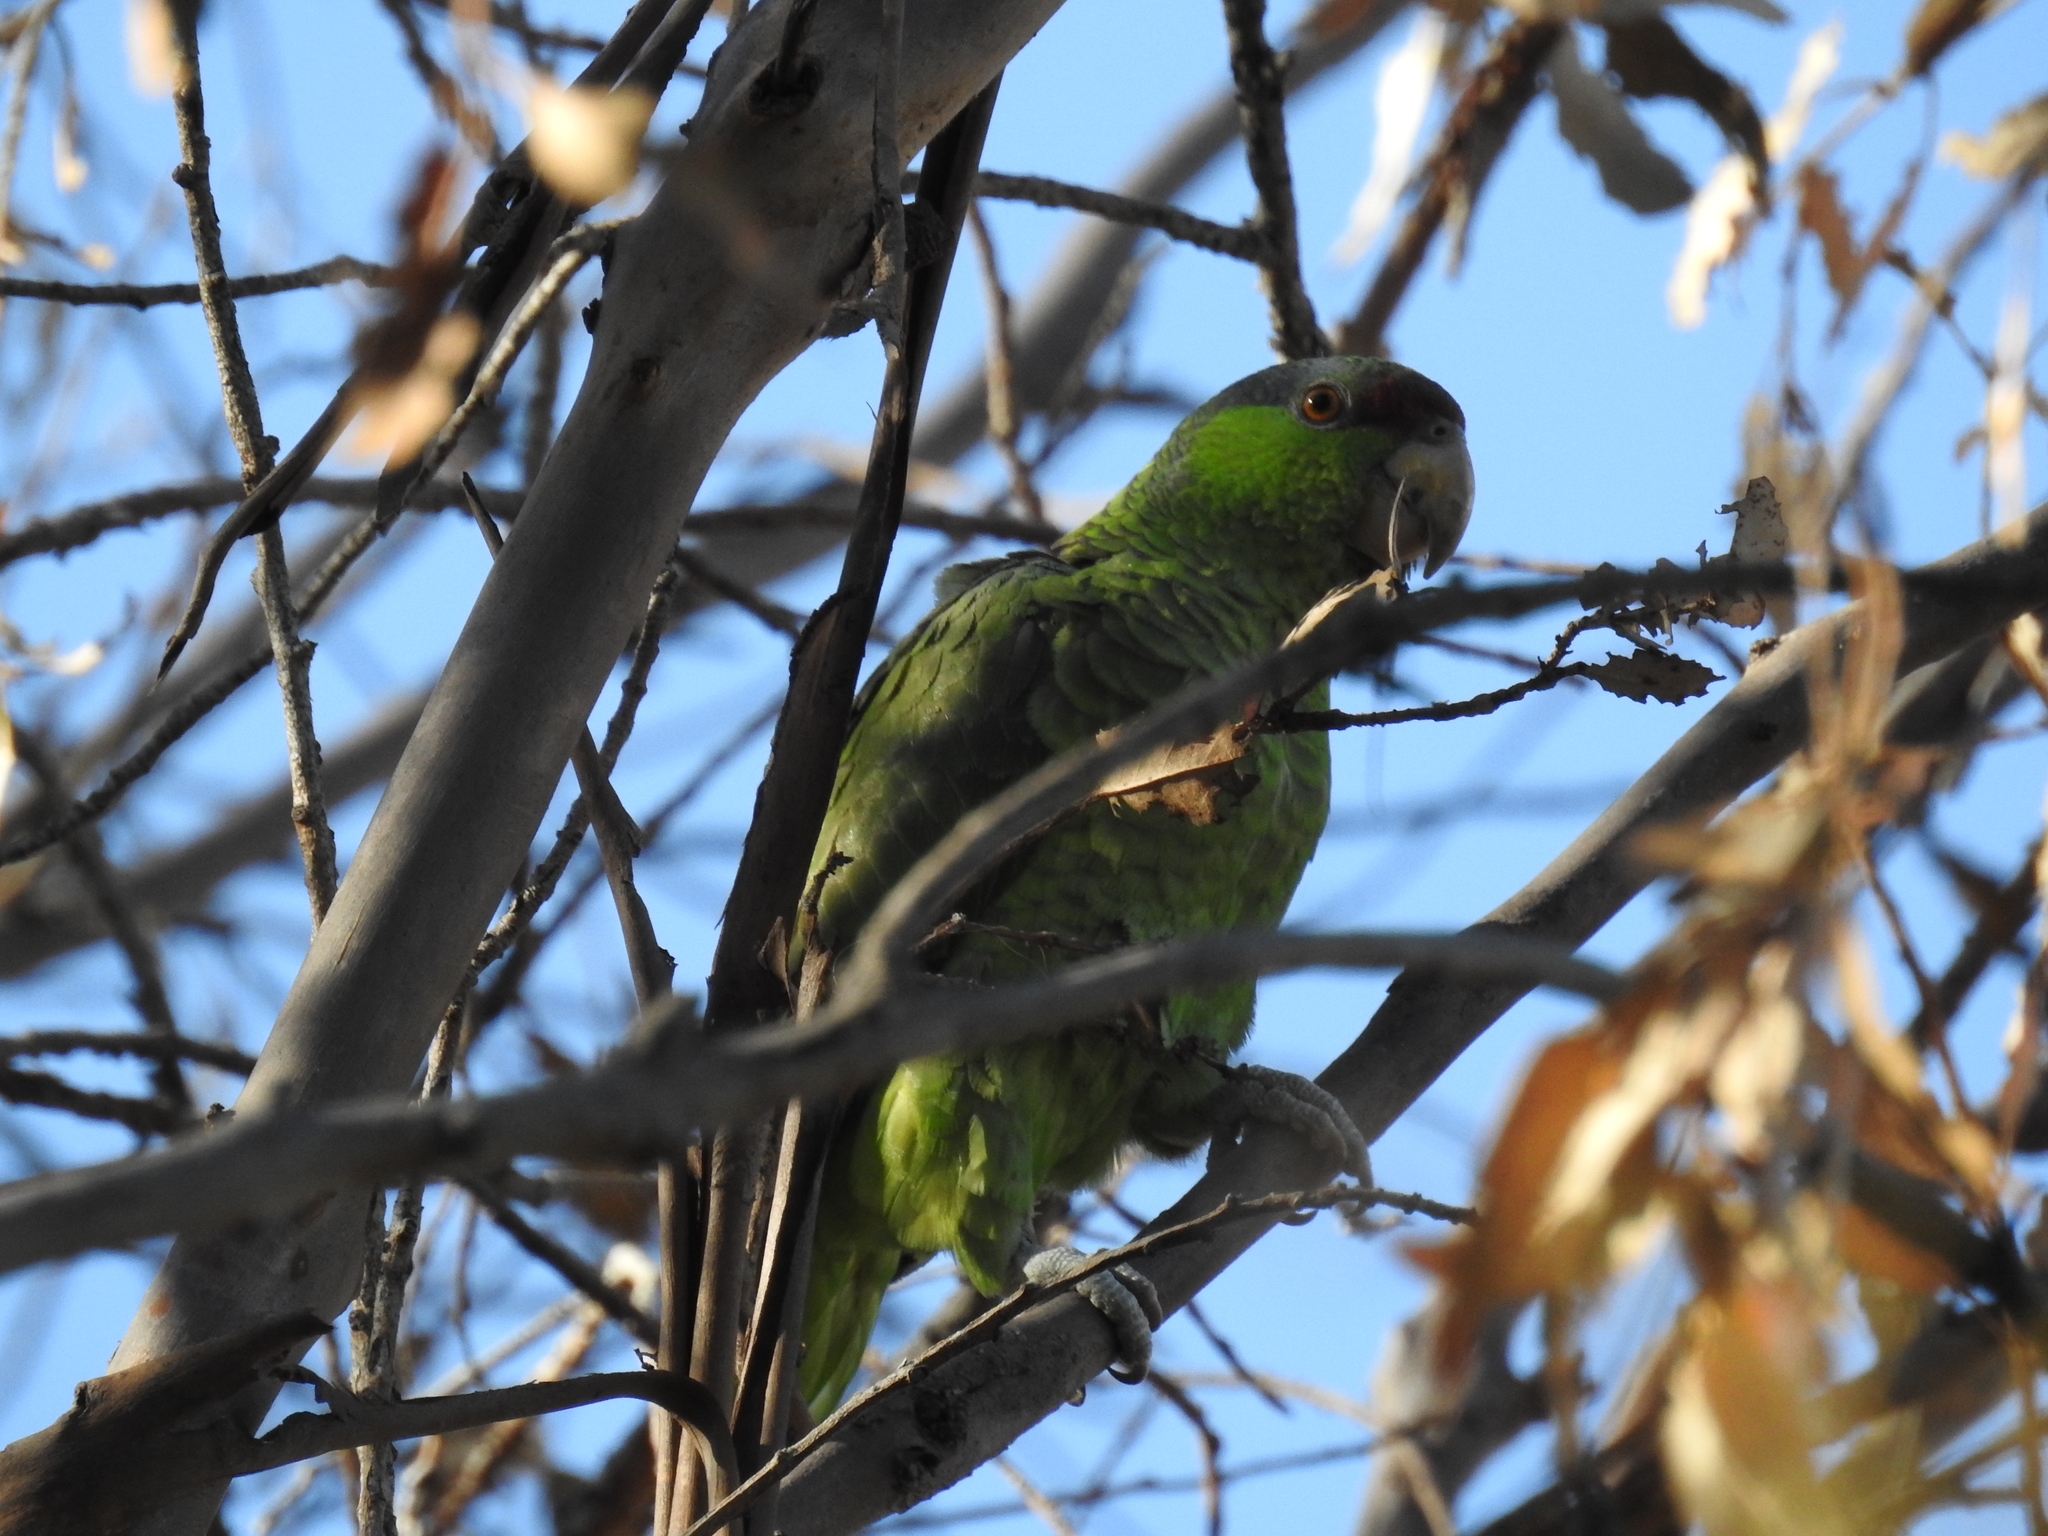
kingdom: Animalia
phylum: Chordata
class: Aves
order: Psittaciformes
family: Psittacidae
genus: Amazona
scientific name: Amazona finschi
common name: Lilac-crowned amazon
